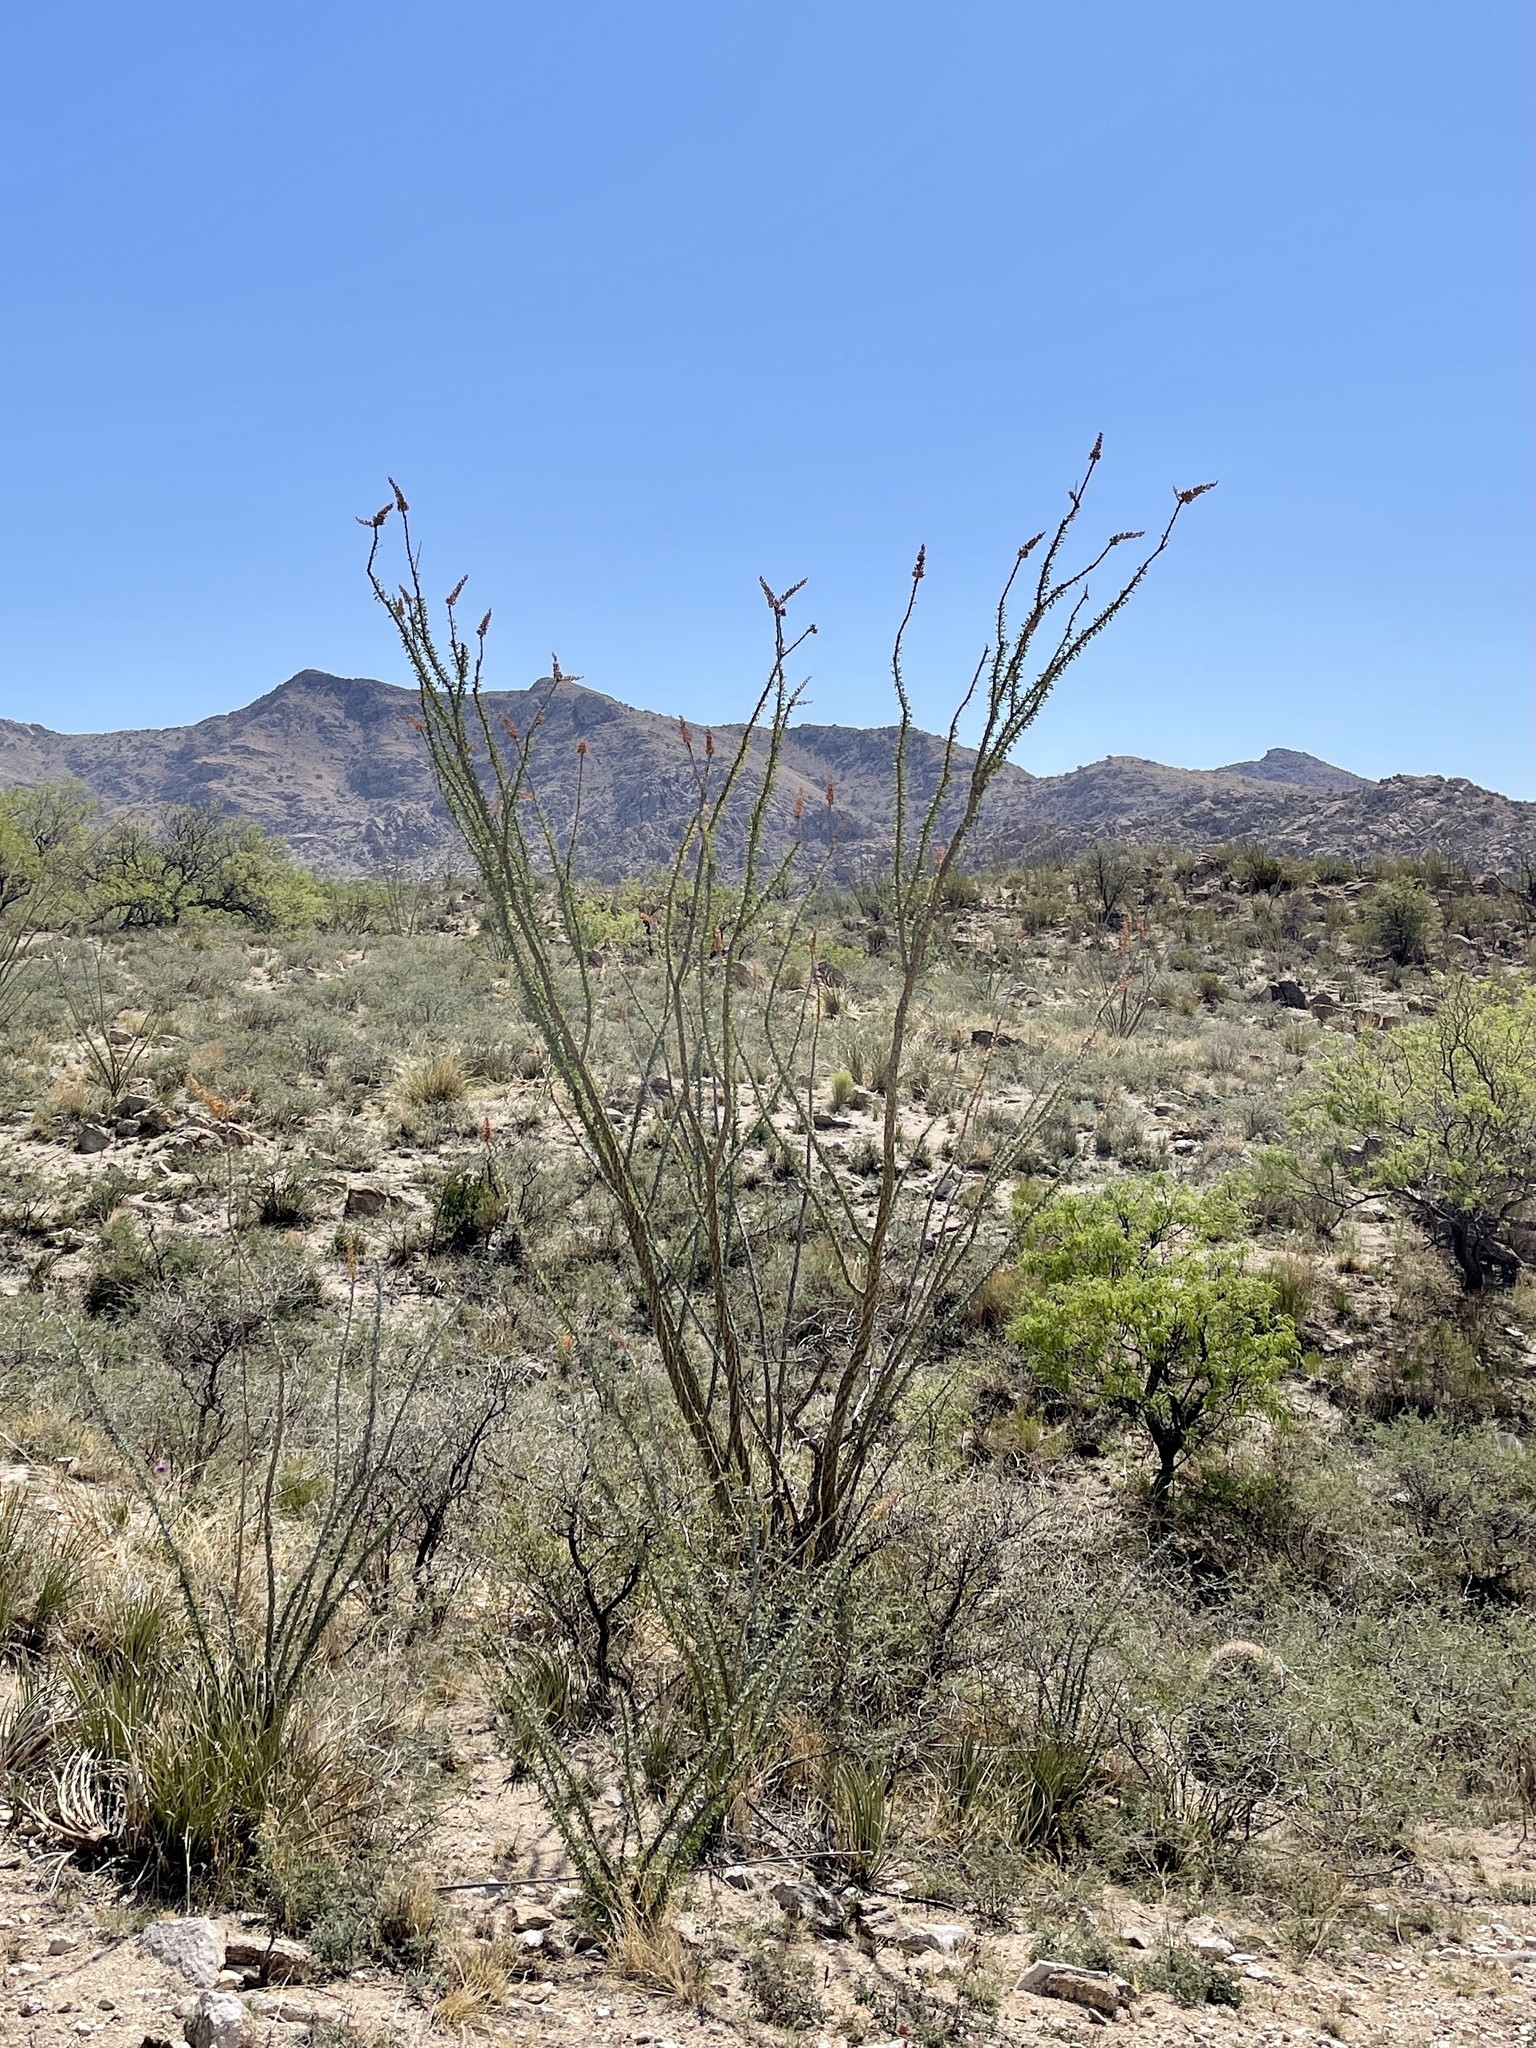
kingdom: Plantae
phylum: Tracheophyta
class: Magnoliopsida
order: Ericales
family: Fouquieriaceae
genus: Fouquieria
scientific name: Fouquieria splendens
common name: Vine-cactus
